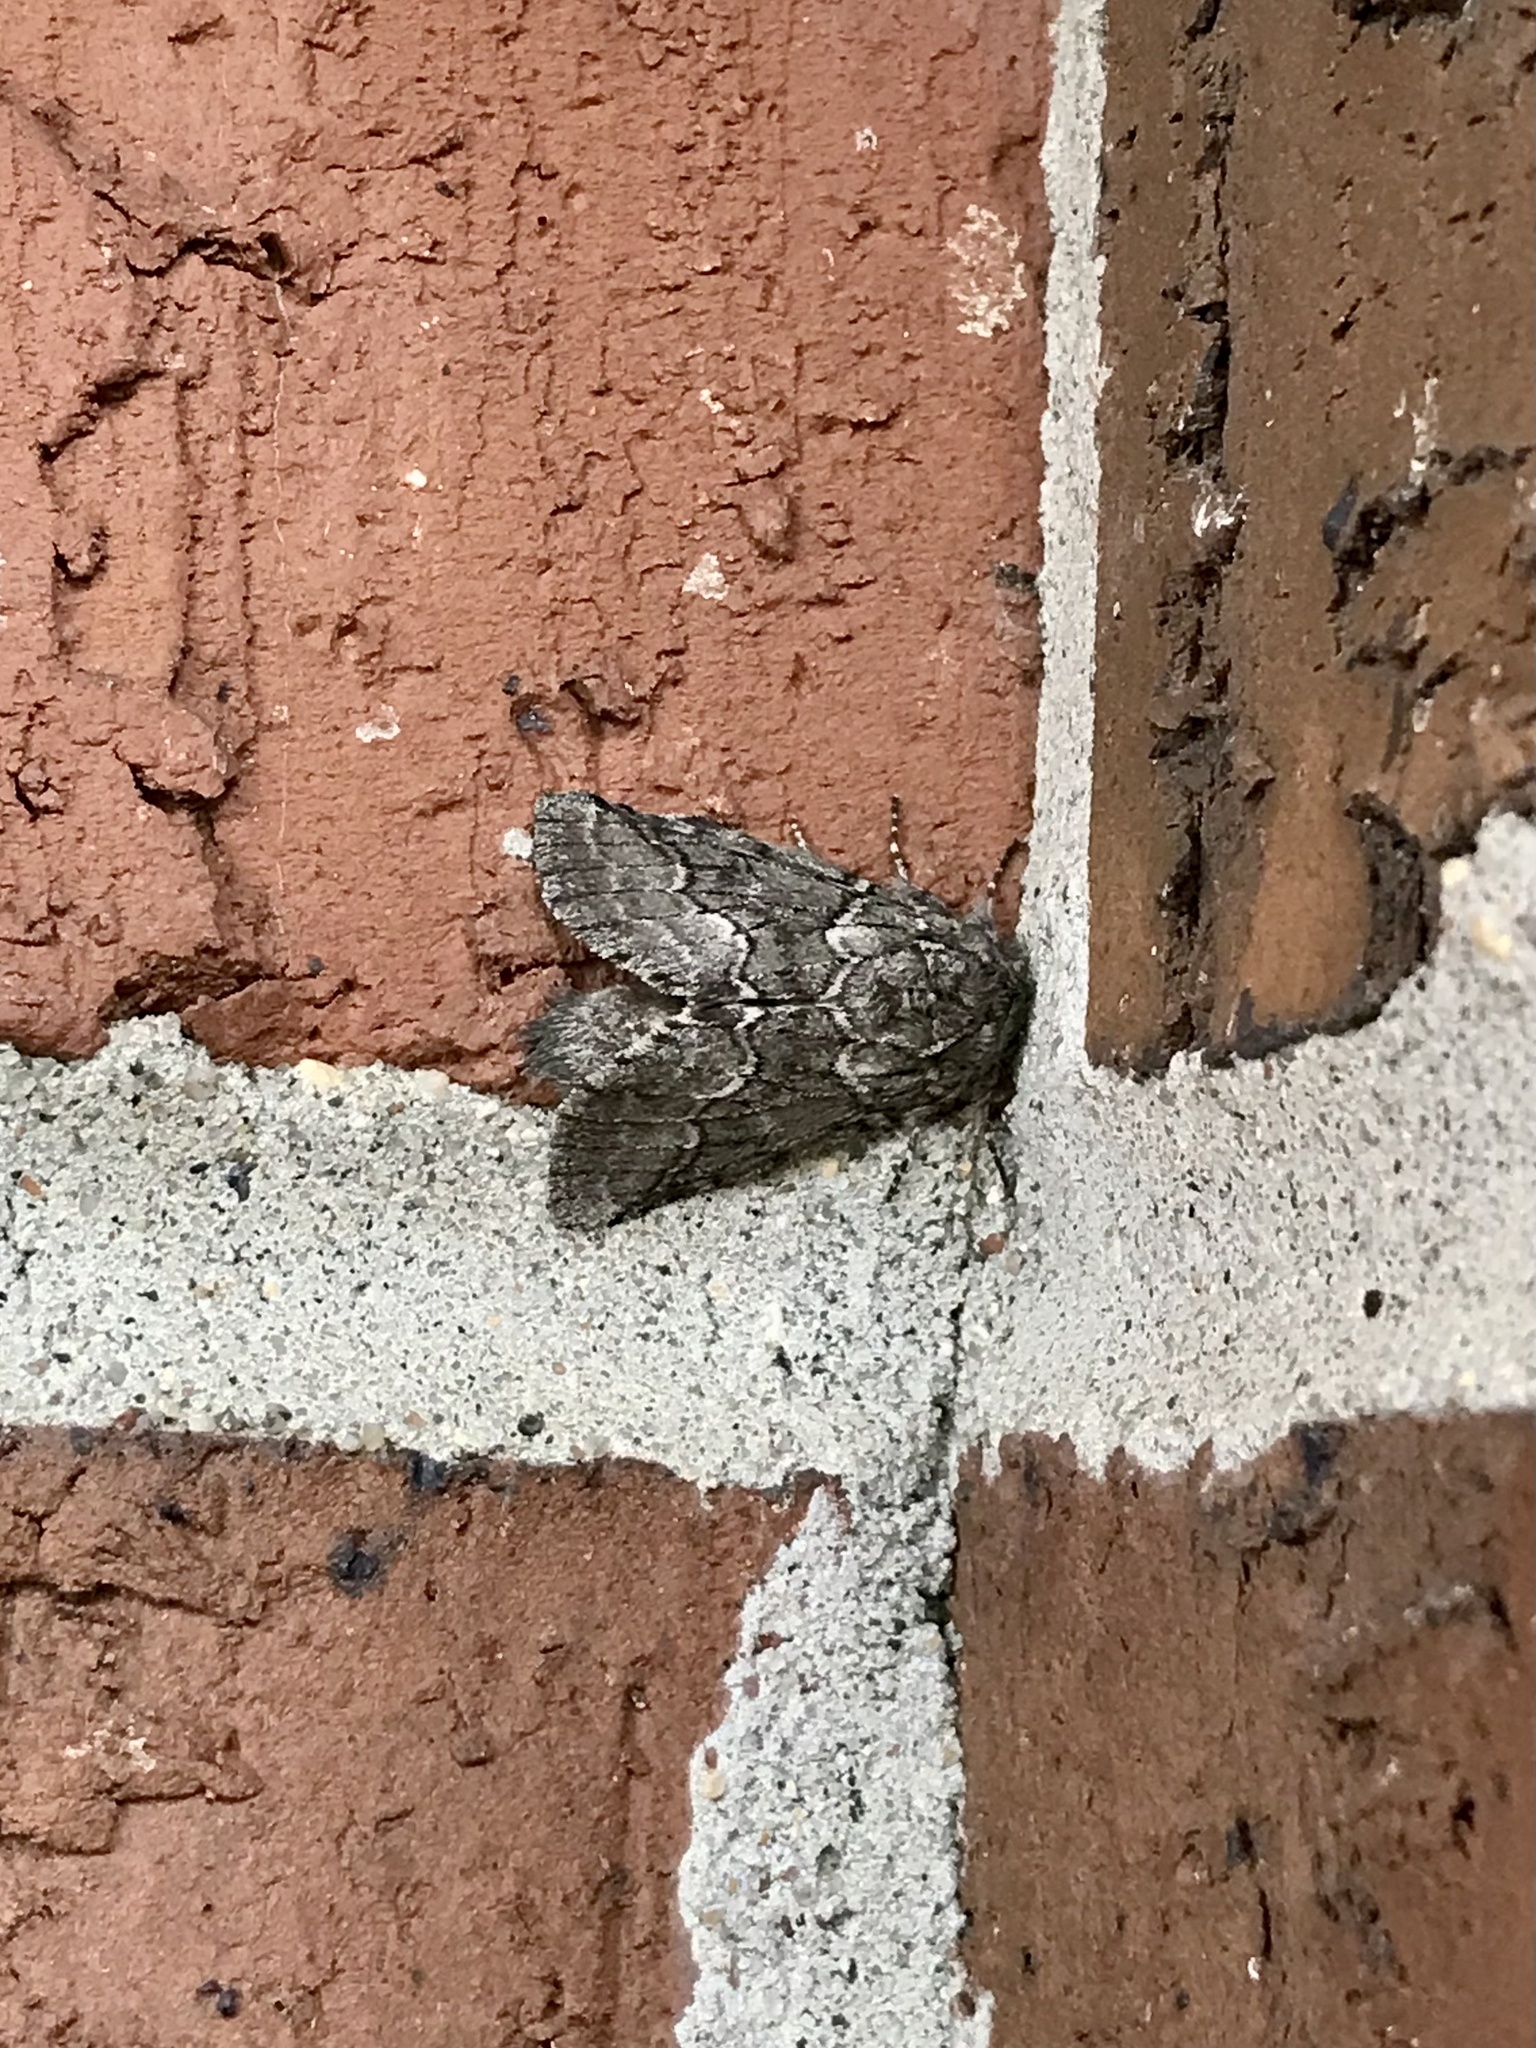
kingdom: Animalia
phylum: Arthropoda
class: Insecta
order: Lepidoptera
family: Notodontidae
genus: Lochmaeus
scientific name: Lochmaeus bilineata
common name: Double-lined prominent
